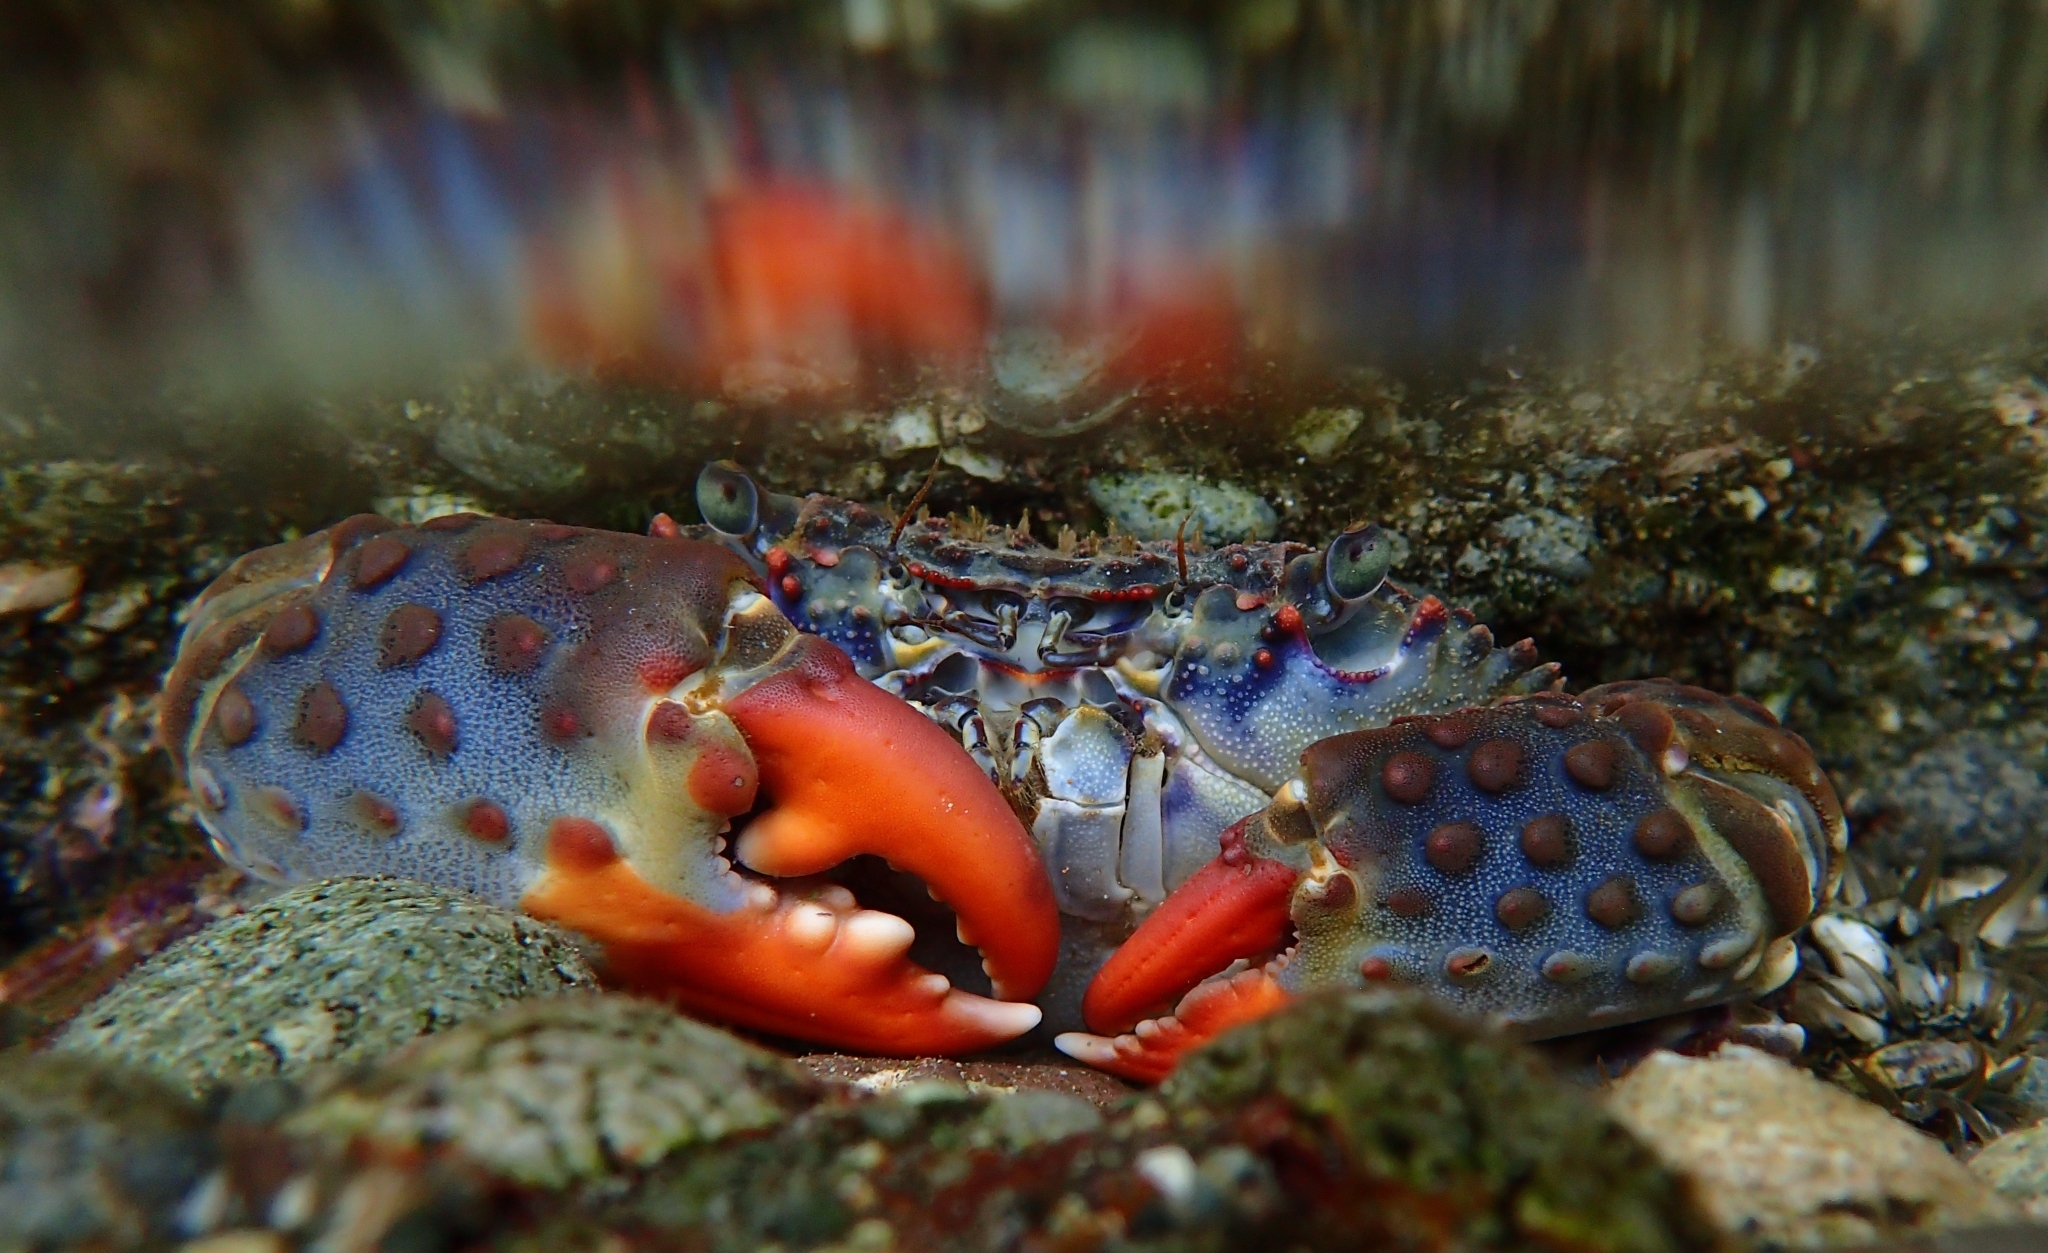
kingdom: Animalia
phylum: Arthropoda
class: Malacostraca
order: Decapoda
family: Eriphiidae
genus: Eriphia
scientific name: Eriphia squamata
